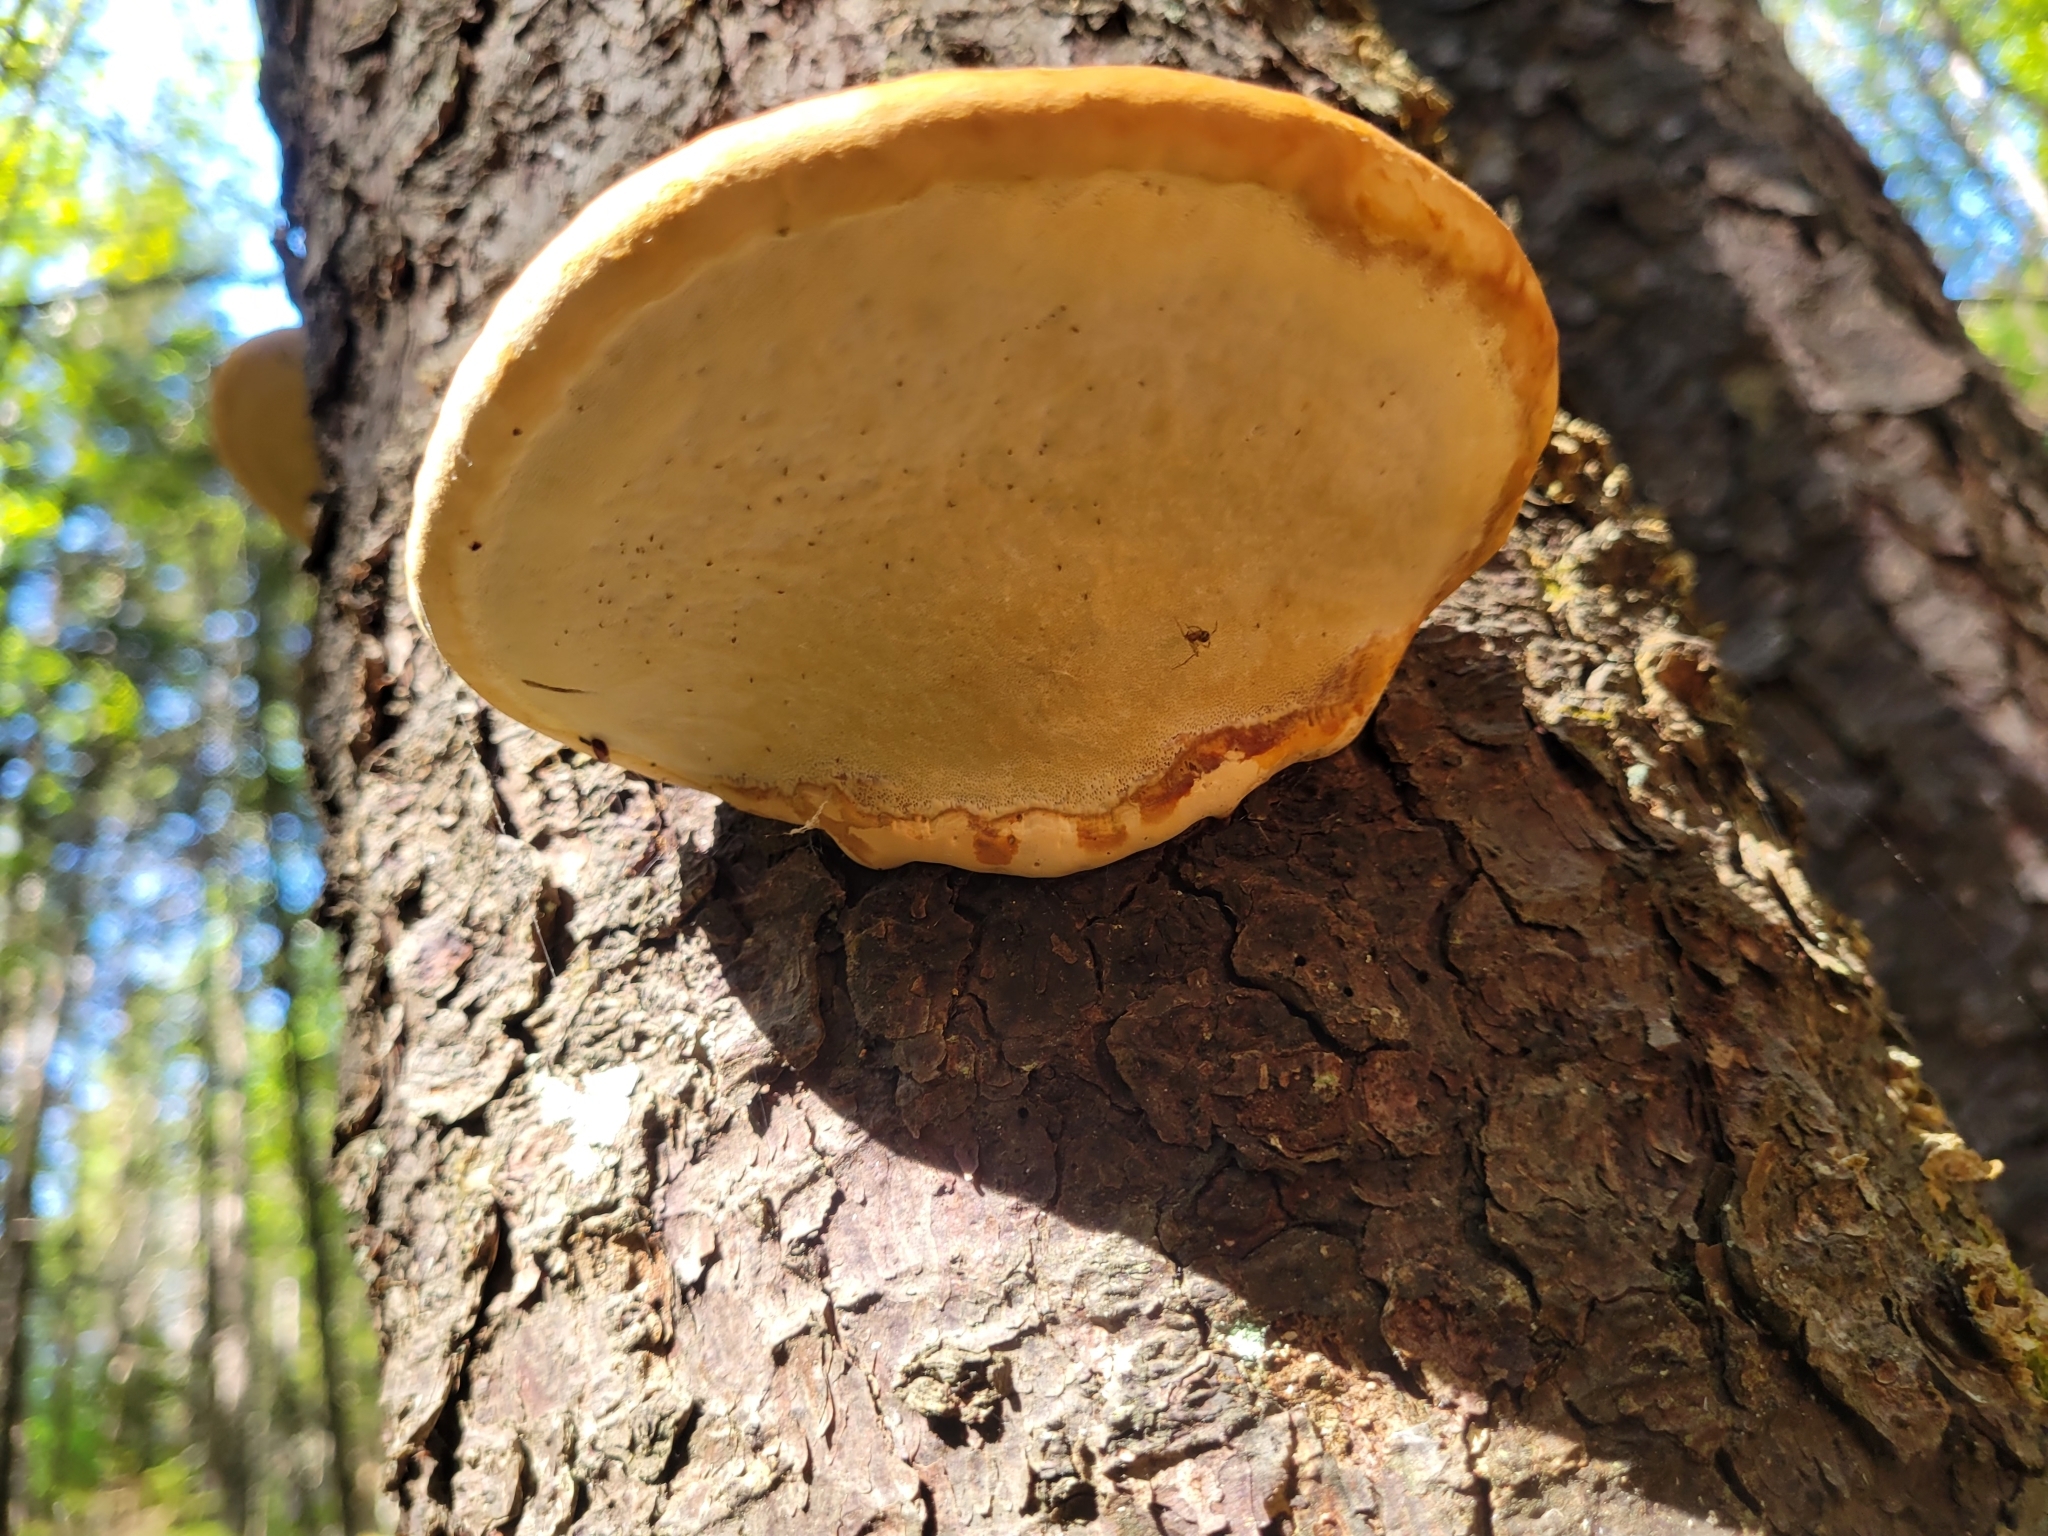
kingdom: Fungi
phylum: Basidiomycota
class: Agaricomycetes
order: Polyporales
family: Fomitopsidaceae
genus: Fomitopsis
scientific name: Fomitopsis mounceae
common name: Northern red belt
